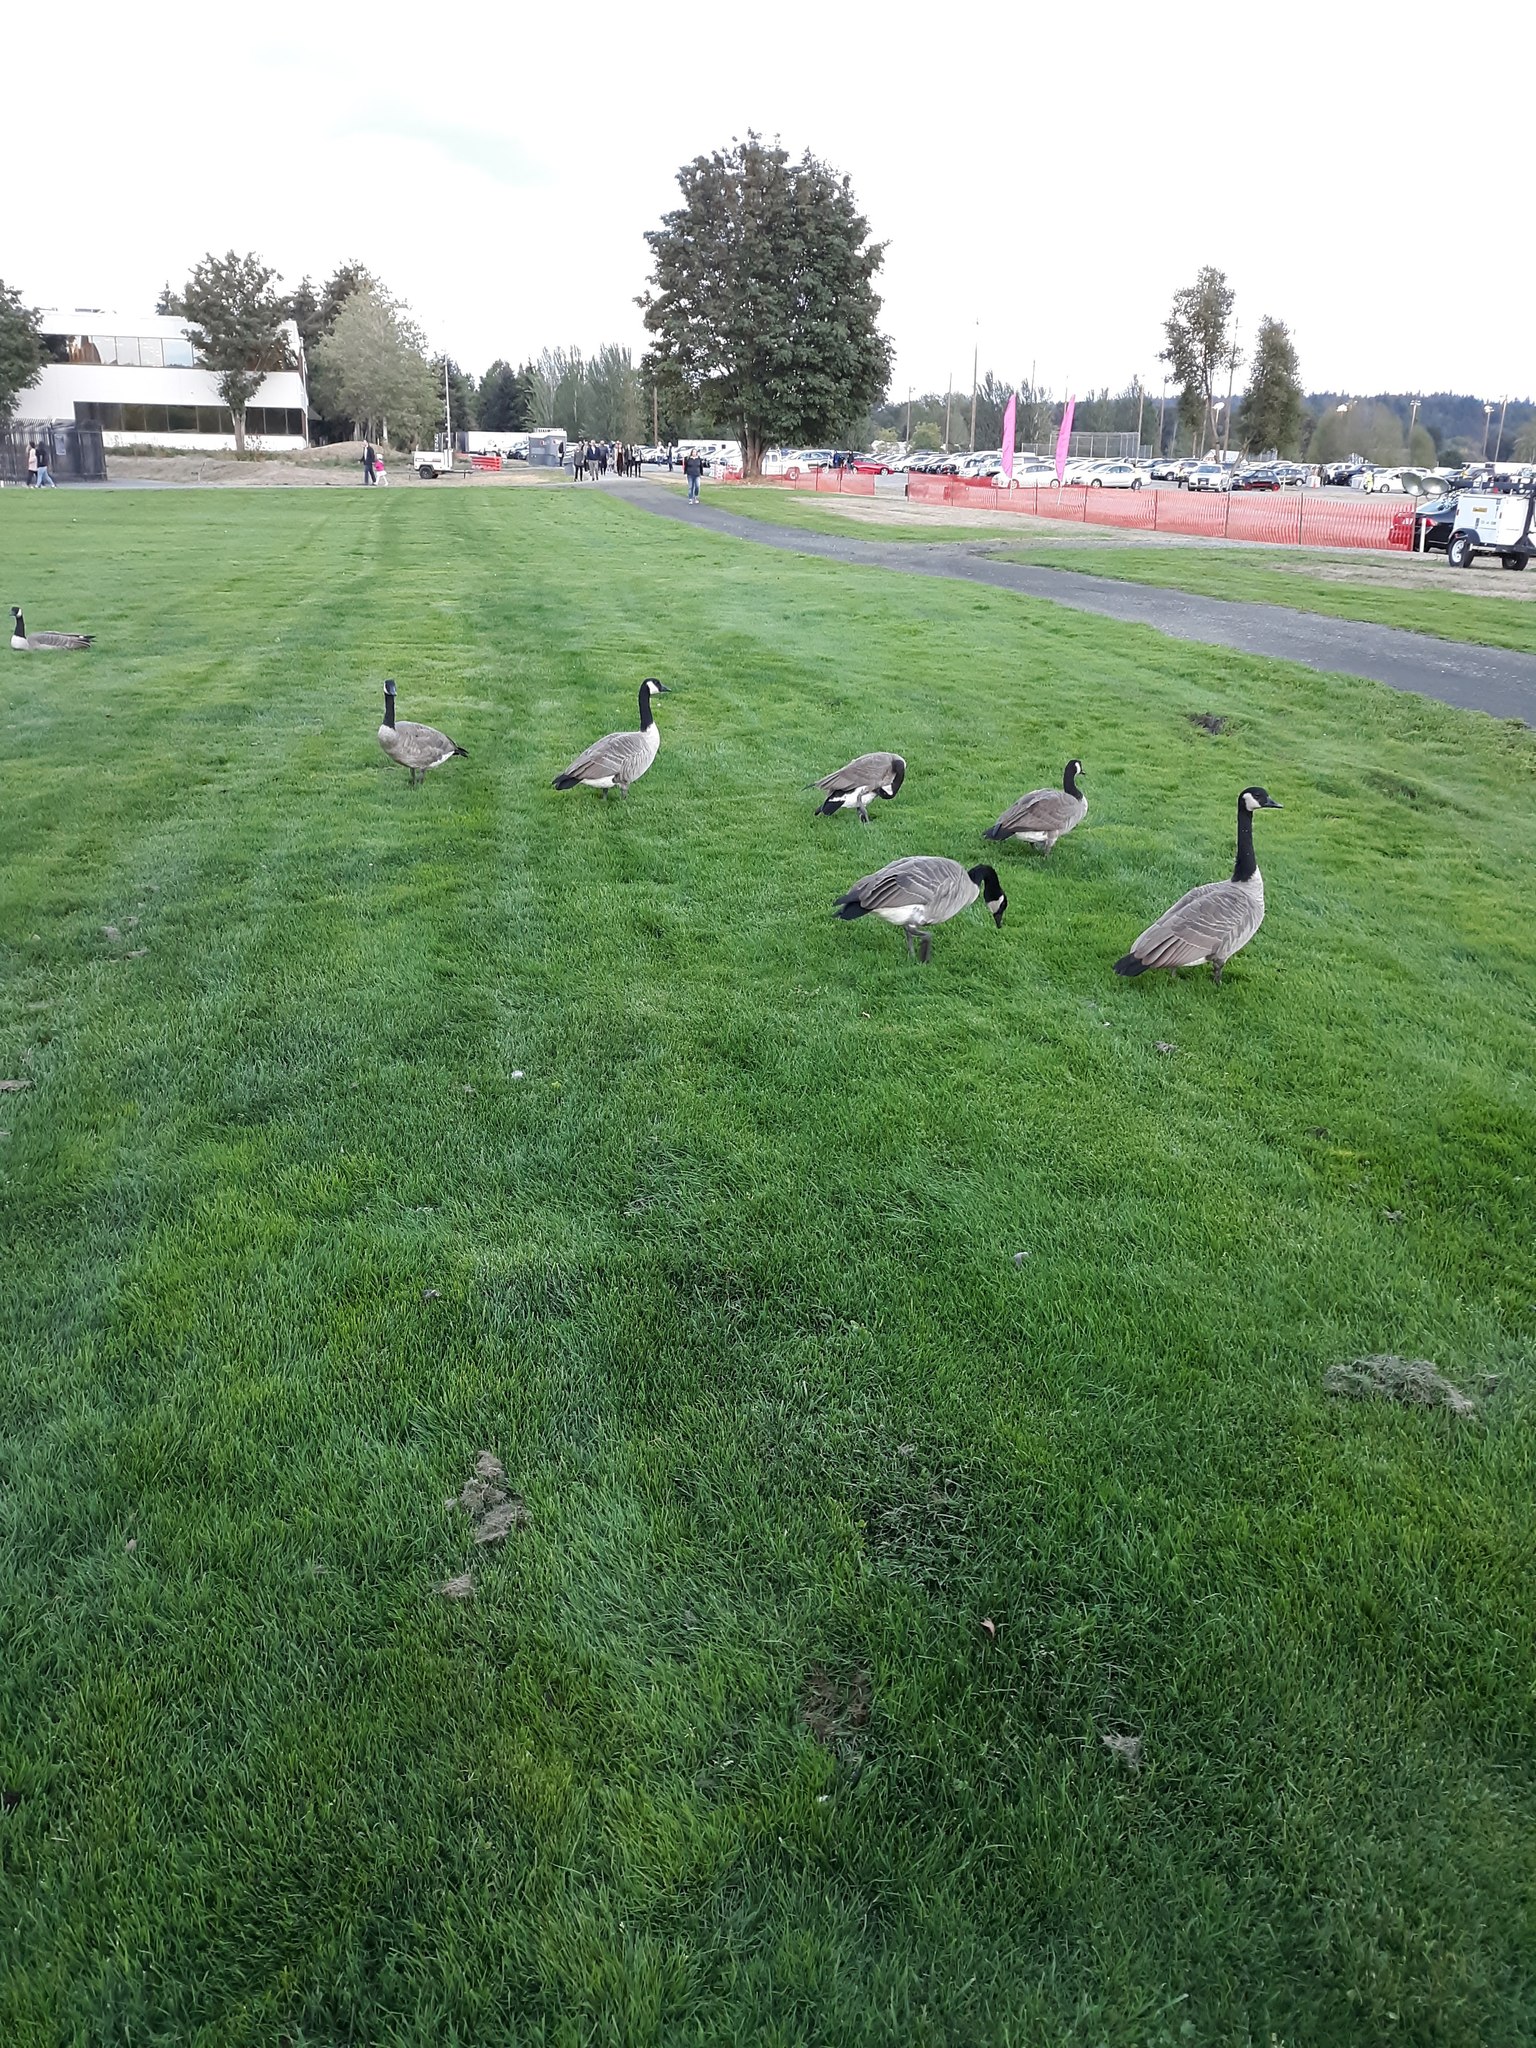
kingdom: Animalia
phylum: Chordata
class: Aves
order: Anseriformes
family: Anatidae
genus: Branta
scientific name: Branta canadensis
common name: Canada goose
